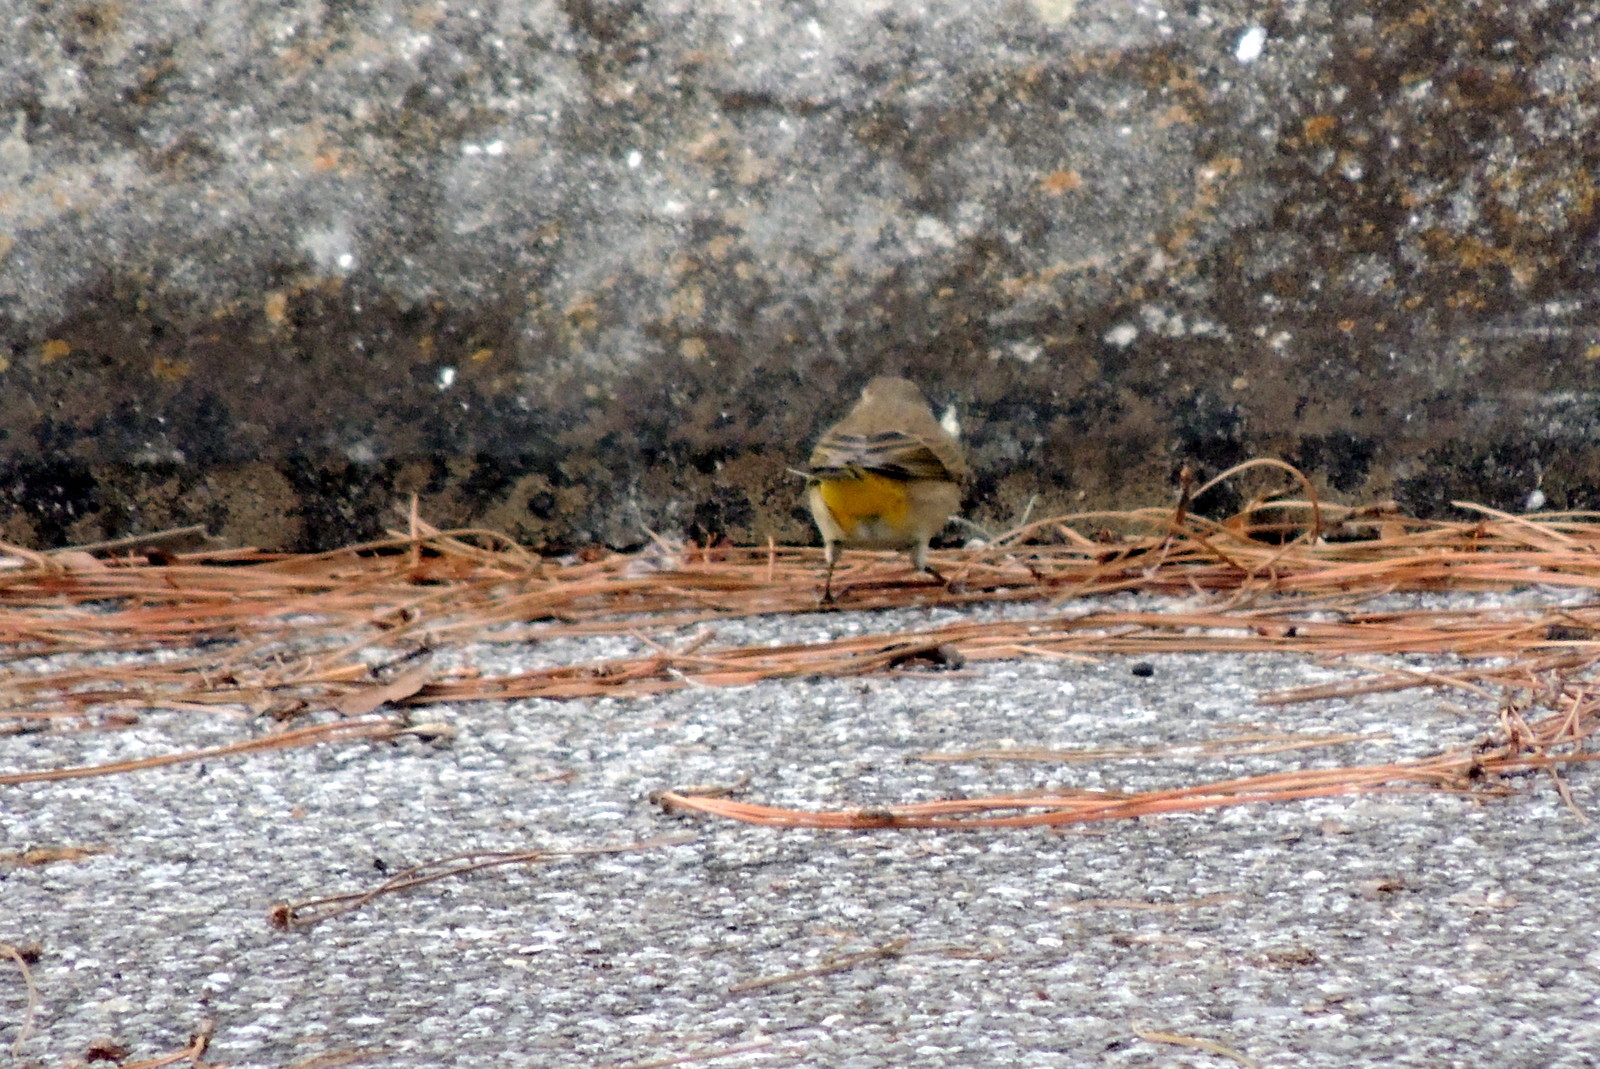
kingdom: Animalia
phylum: Chordata
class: Aves
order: Passeriformes
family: Parulidae
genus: Setophaga
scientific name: Setophaga palmarum
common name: Palm warbler
